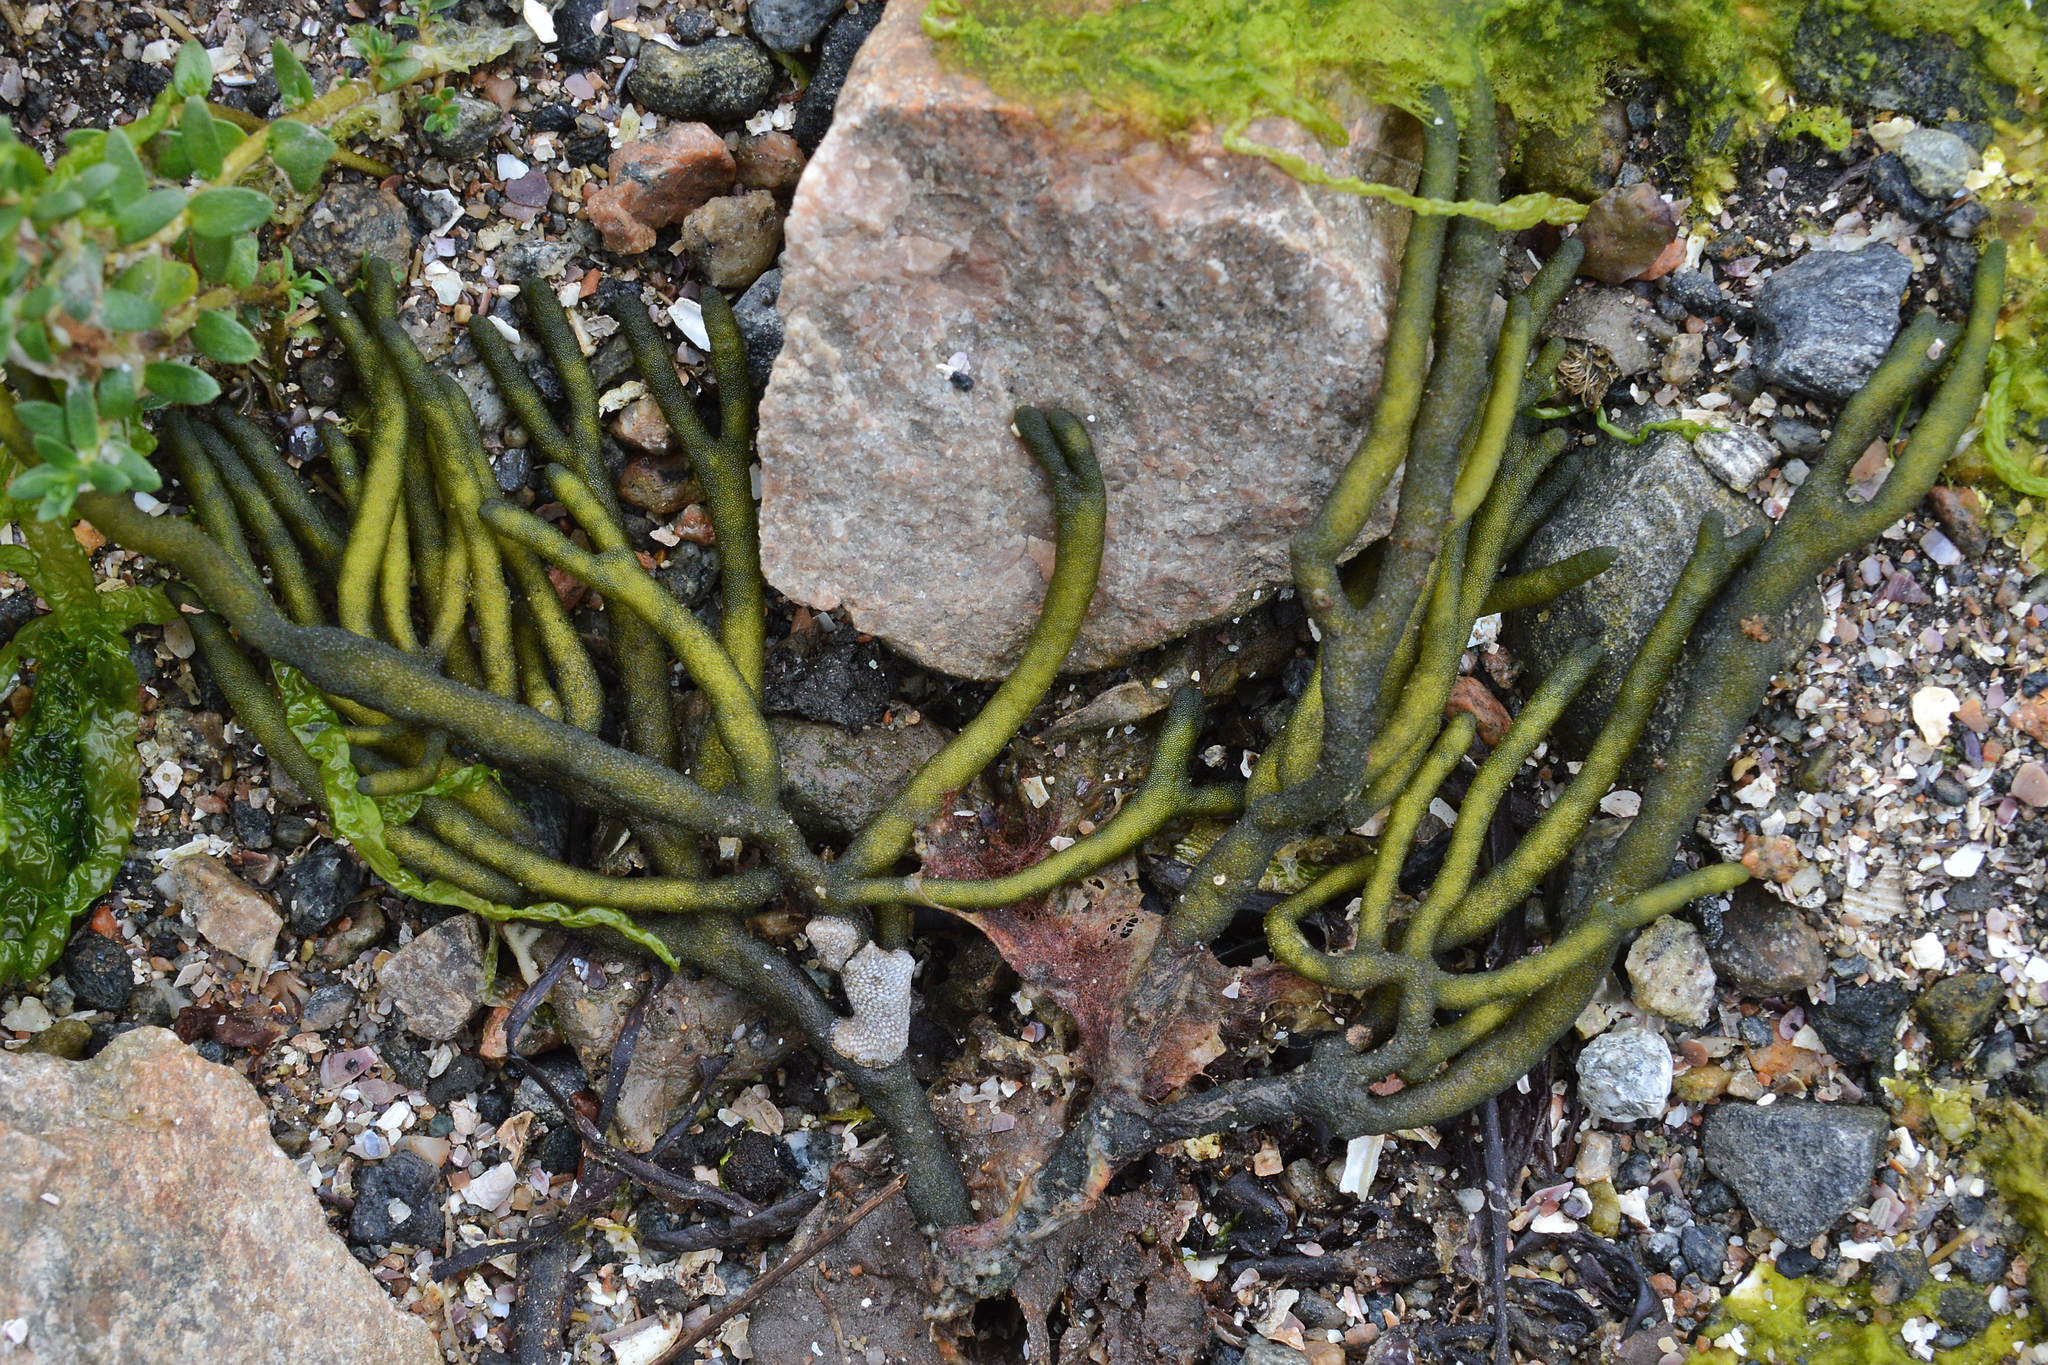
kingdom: Plantae
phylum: Chlorophyta
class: Ulvophyceae
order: Bryopsidales
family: Codiaceae
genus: Codium
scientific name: Codium fragile
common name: Dead man's fingers
